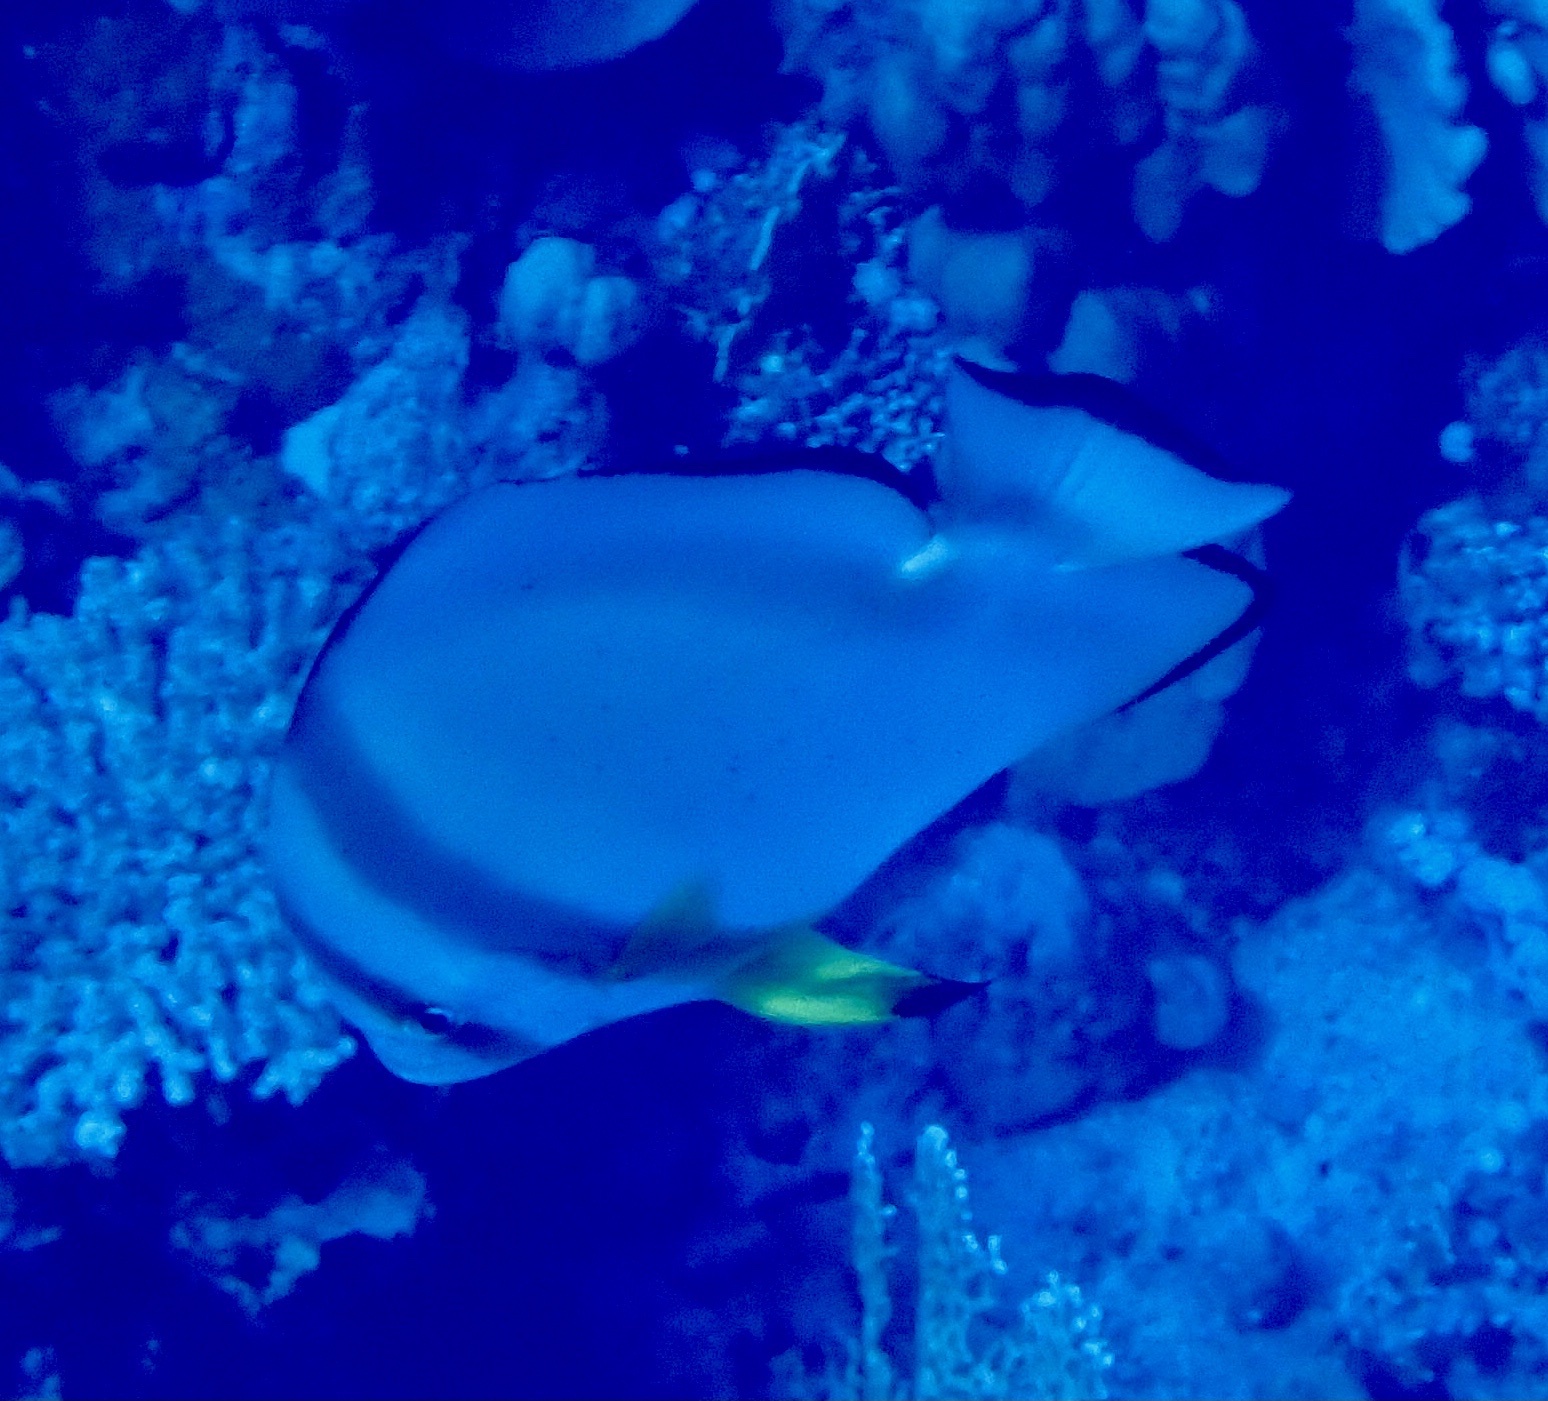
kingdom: Animalia
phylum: Chordata
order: Perciformes
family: Ephippidae
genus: Platax
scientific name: Platax orbicularis
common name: Batfish
